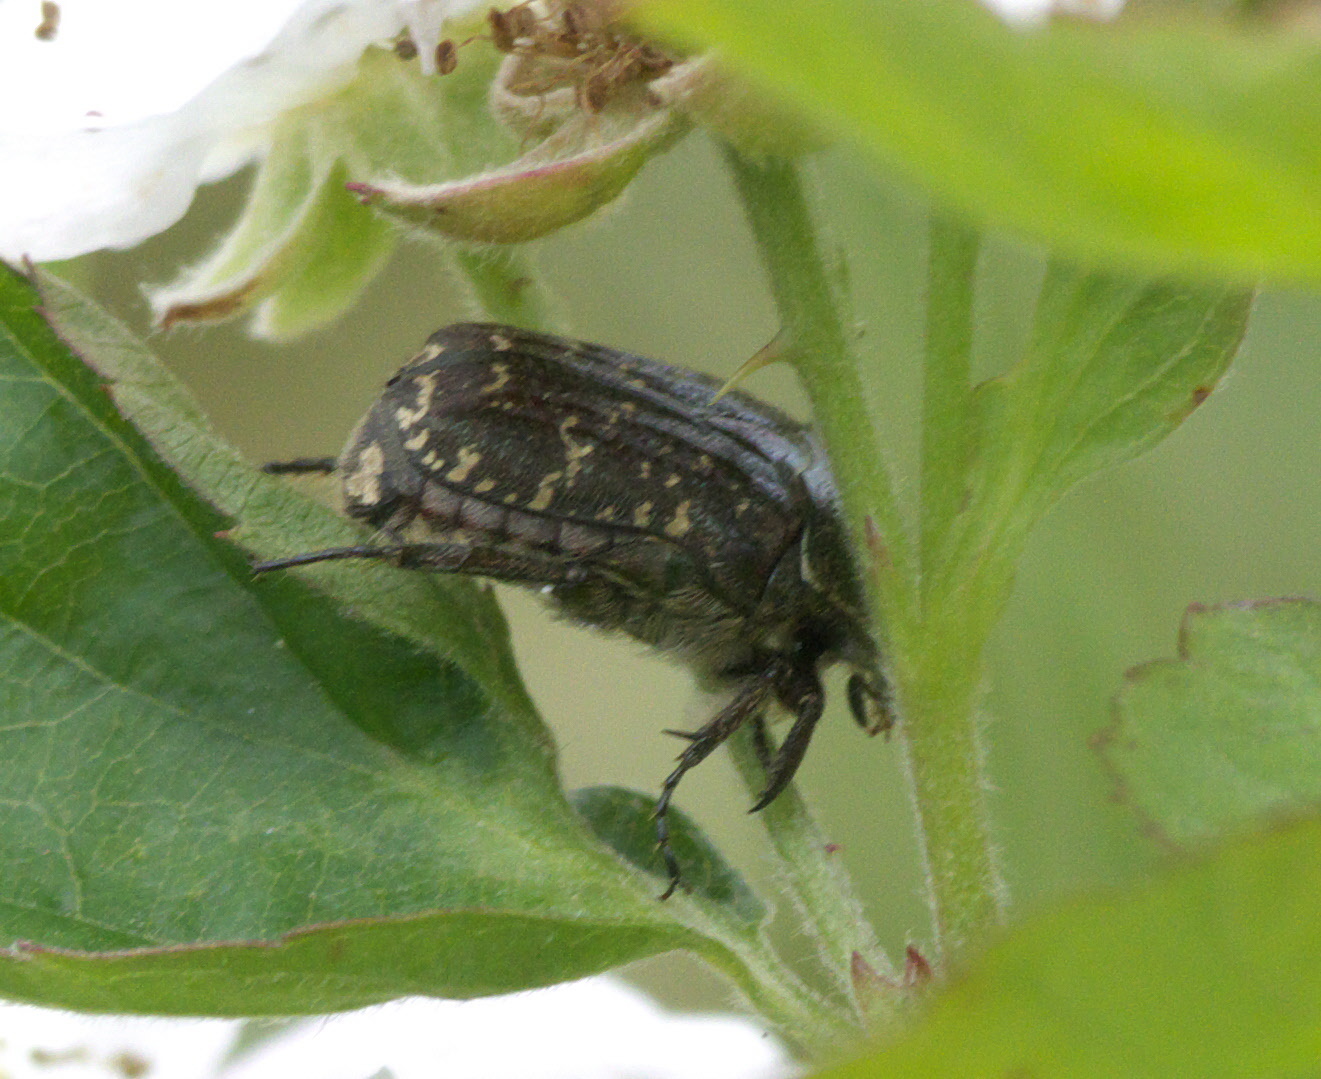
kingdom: Animalia
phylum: Arthropoda
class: Insecta
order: Coleoptera
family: Scarabaeidae
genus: Euphoria
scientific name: Euphoria sepulcralis
